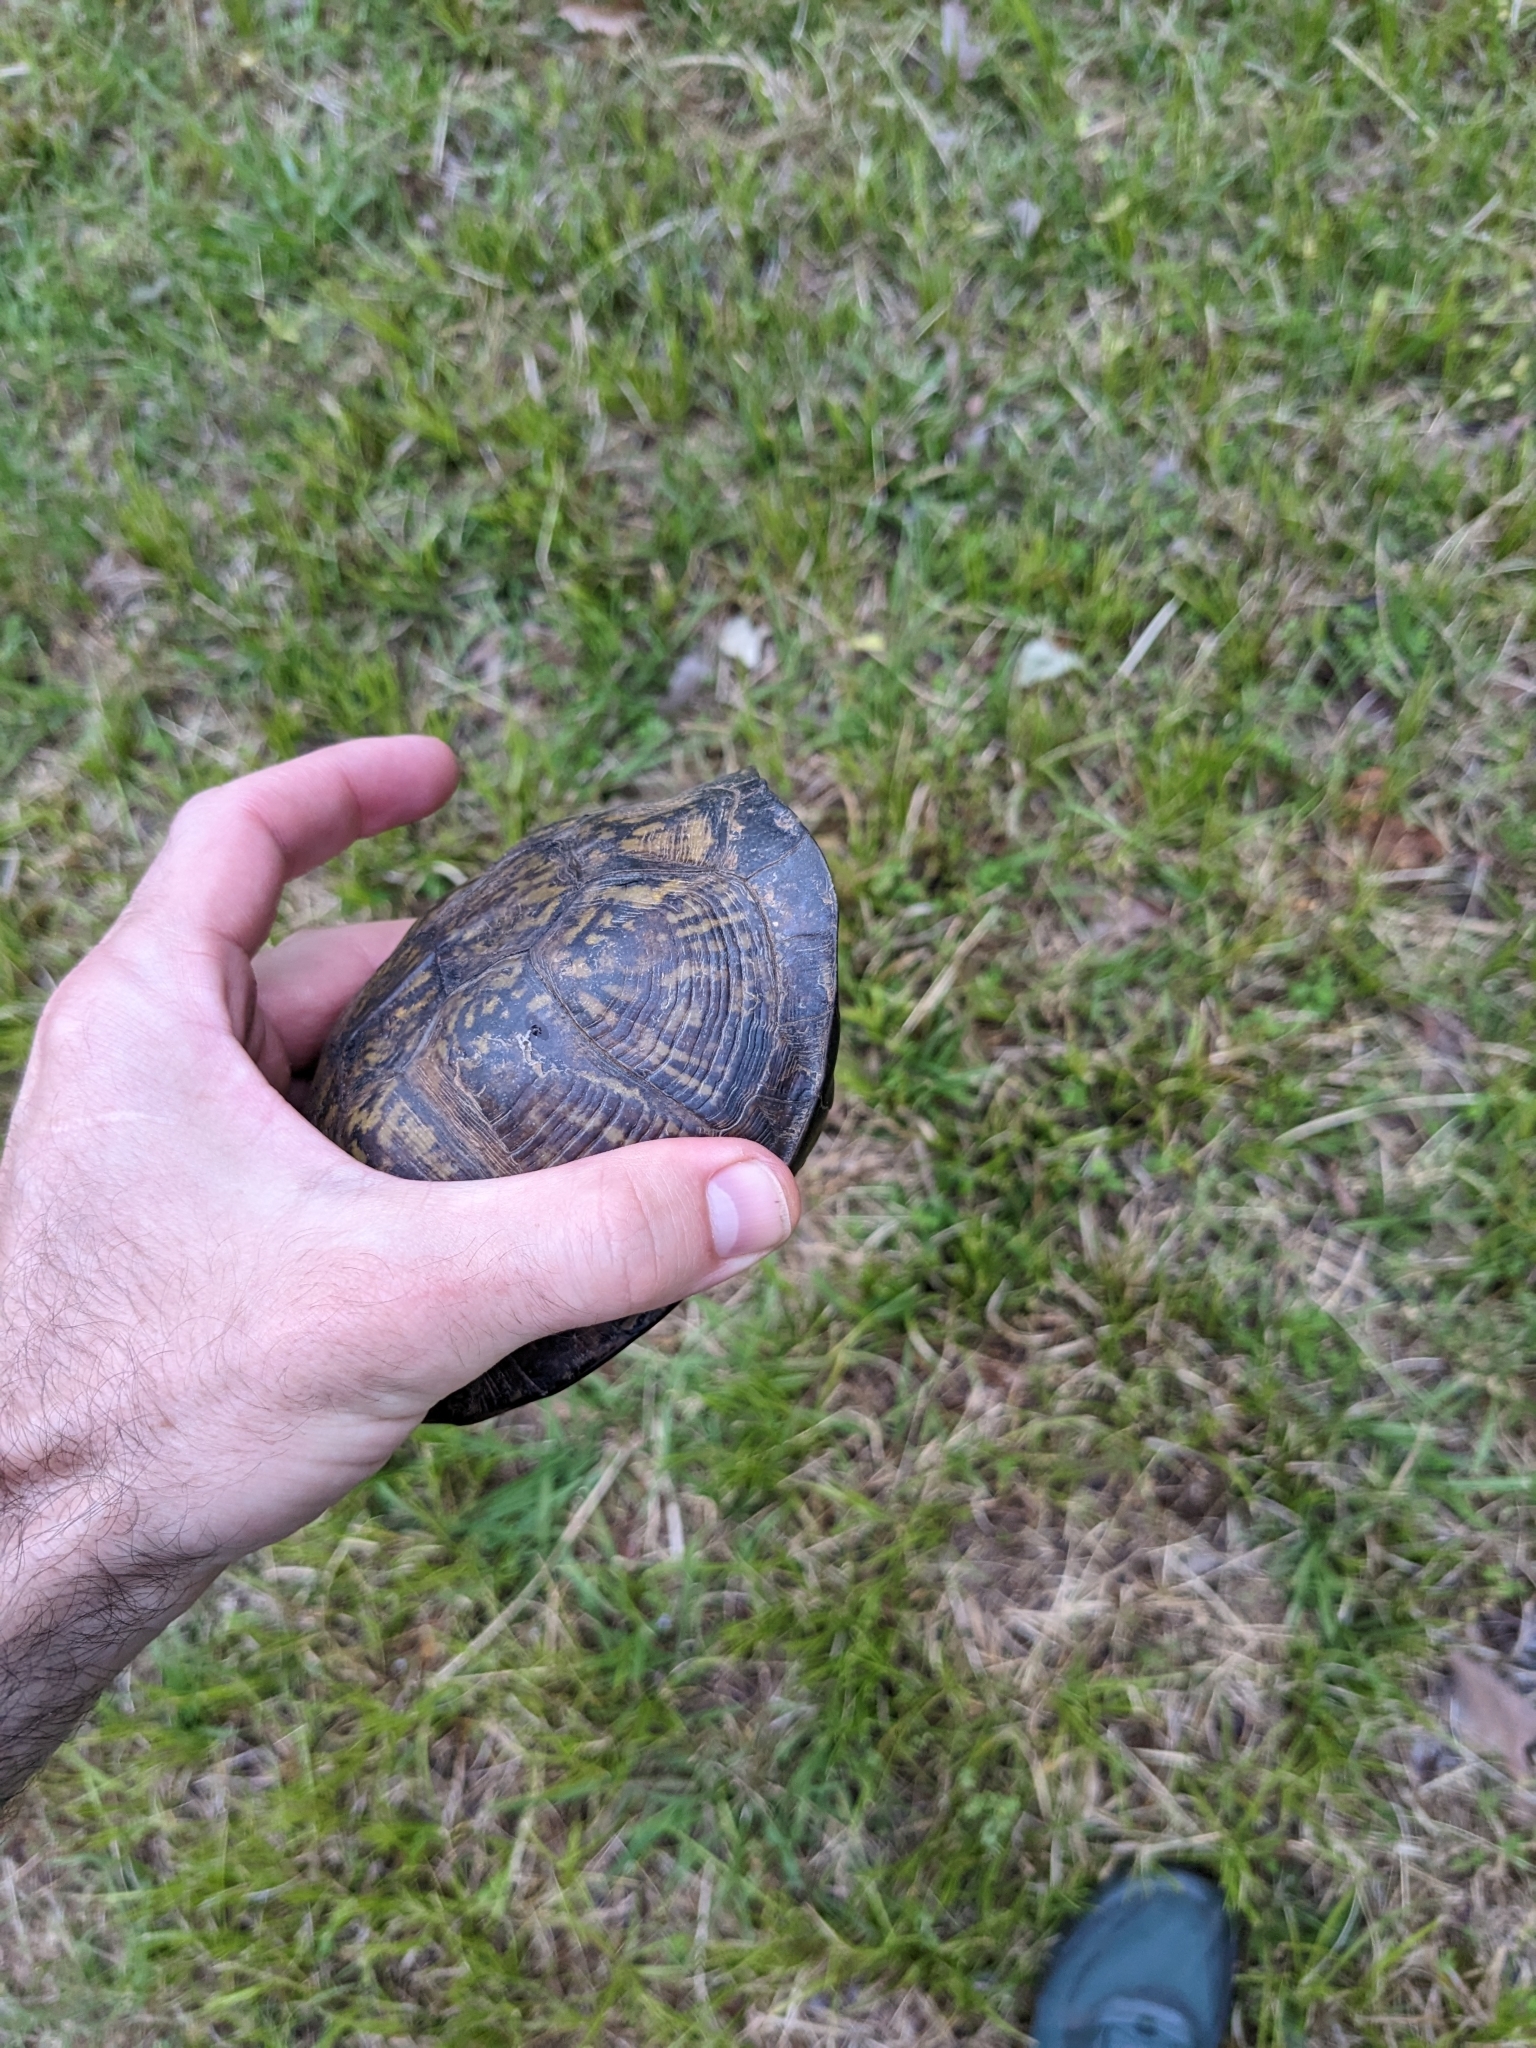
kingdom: Animalia
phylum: Chordata
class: Testudines
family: Emydidae
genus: Terrapene
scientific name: Terrapene carolina
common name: Common box turtle
